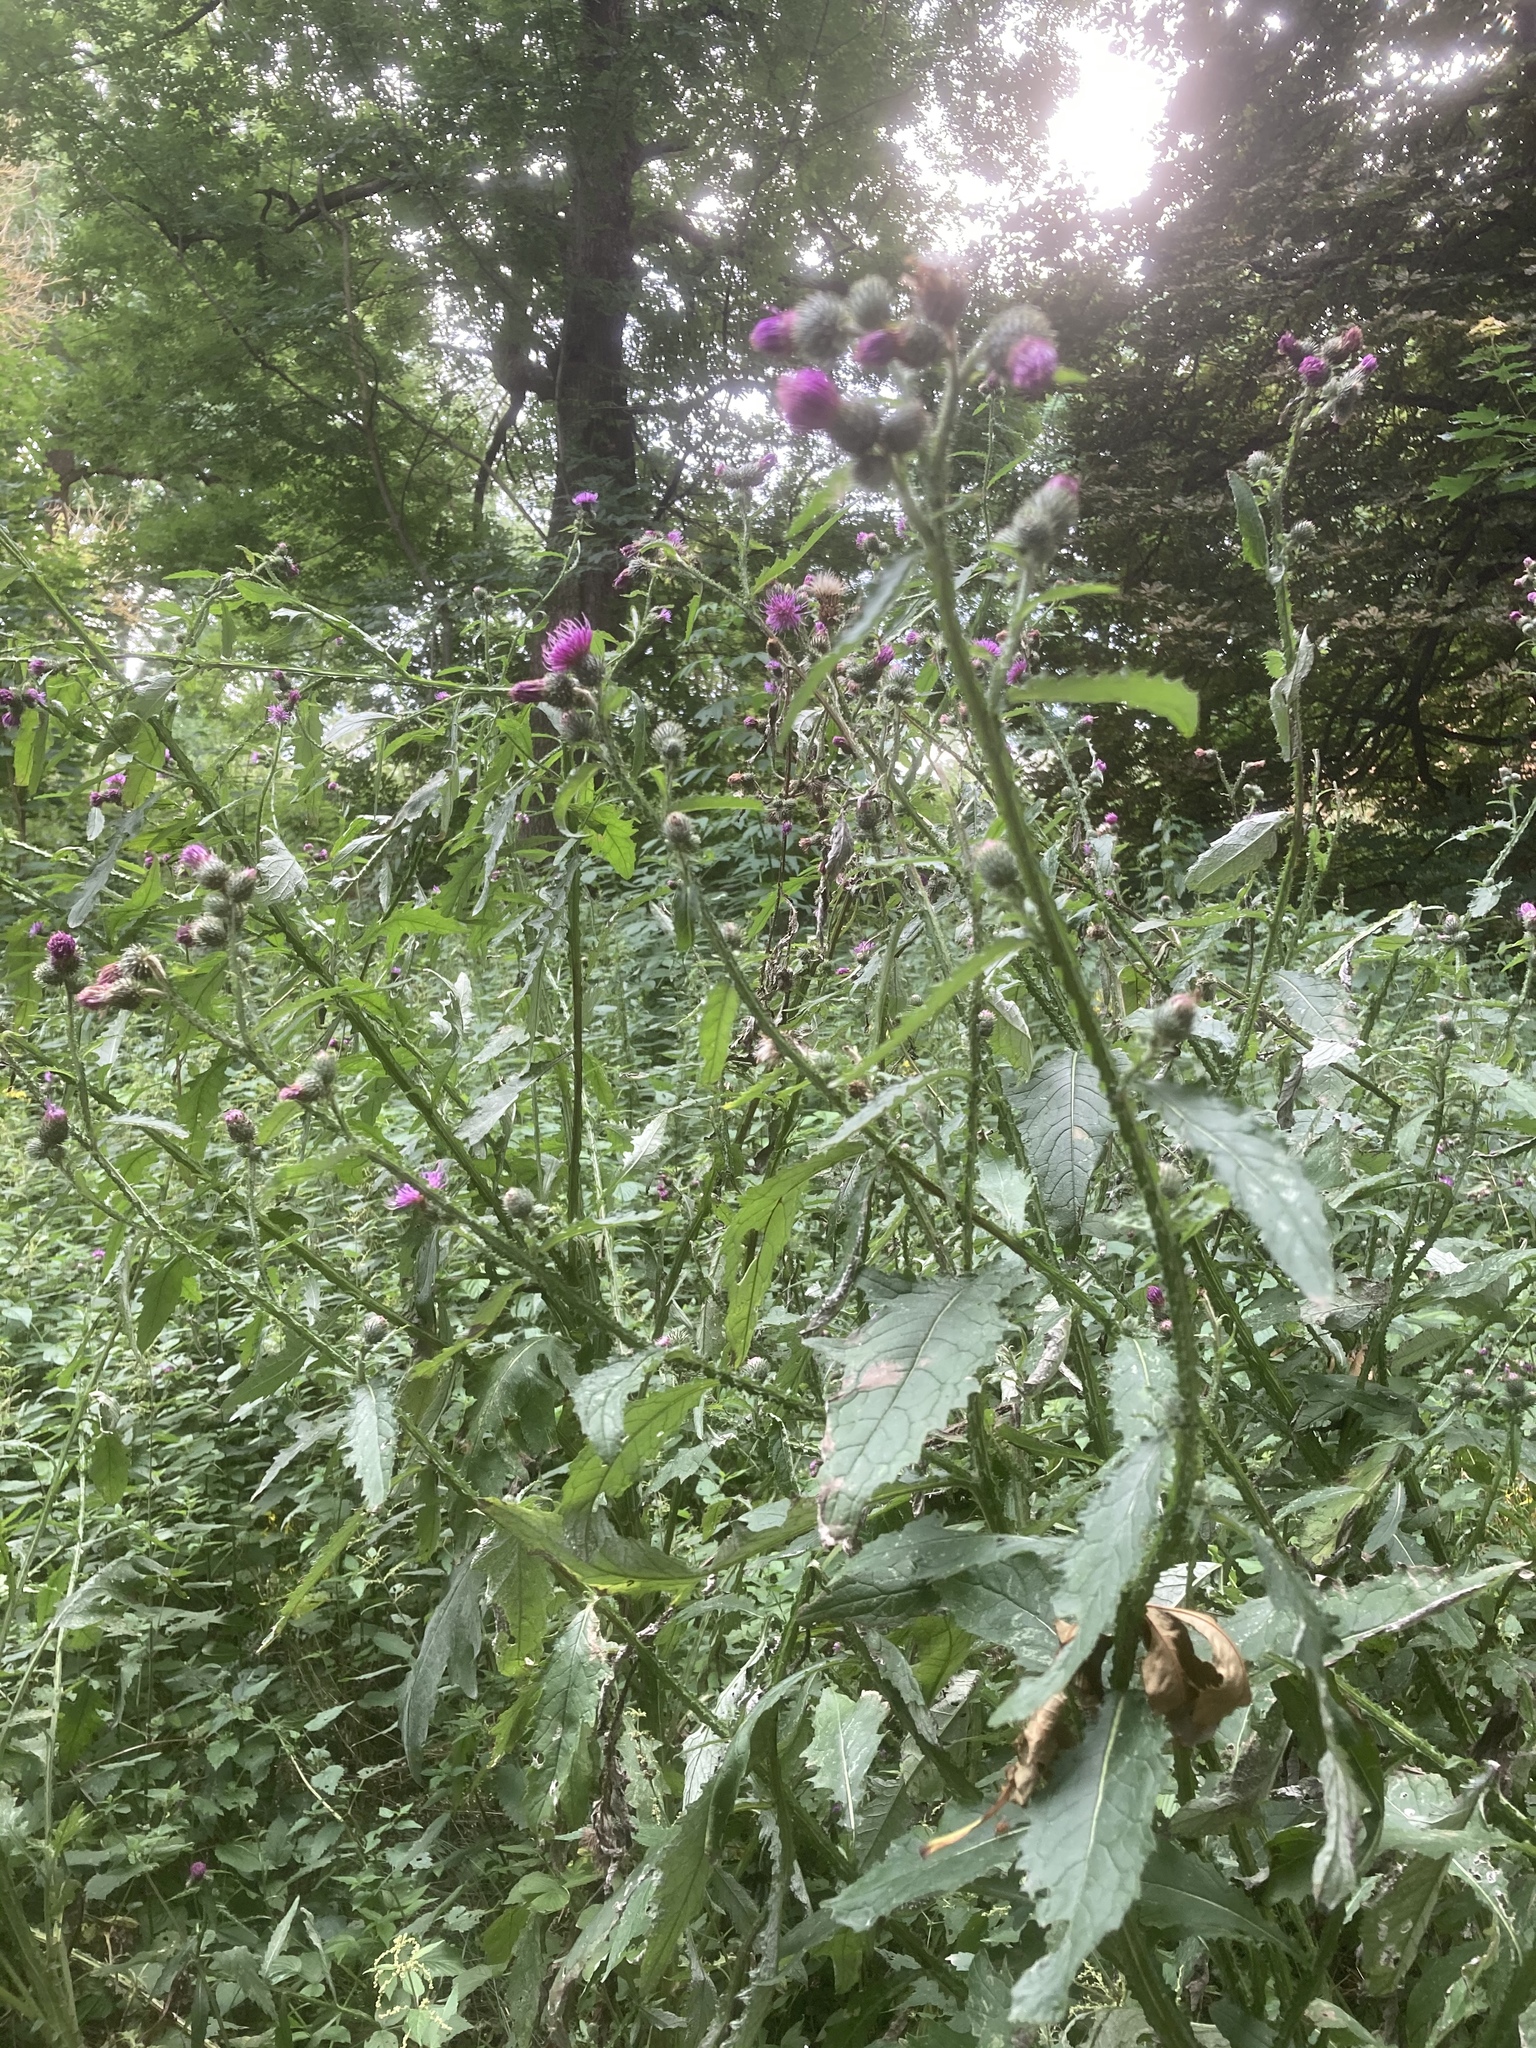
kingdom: Plantae
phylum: Tracheophyta
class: Magnoliopsida
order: Asterales
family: Asteraceae
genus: Carduus
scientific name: Carduus crispus
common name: Welted thistle
